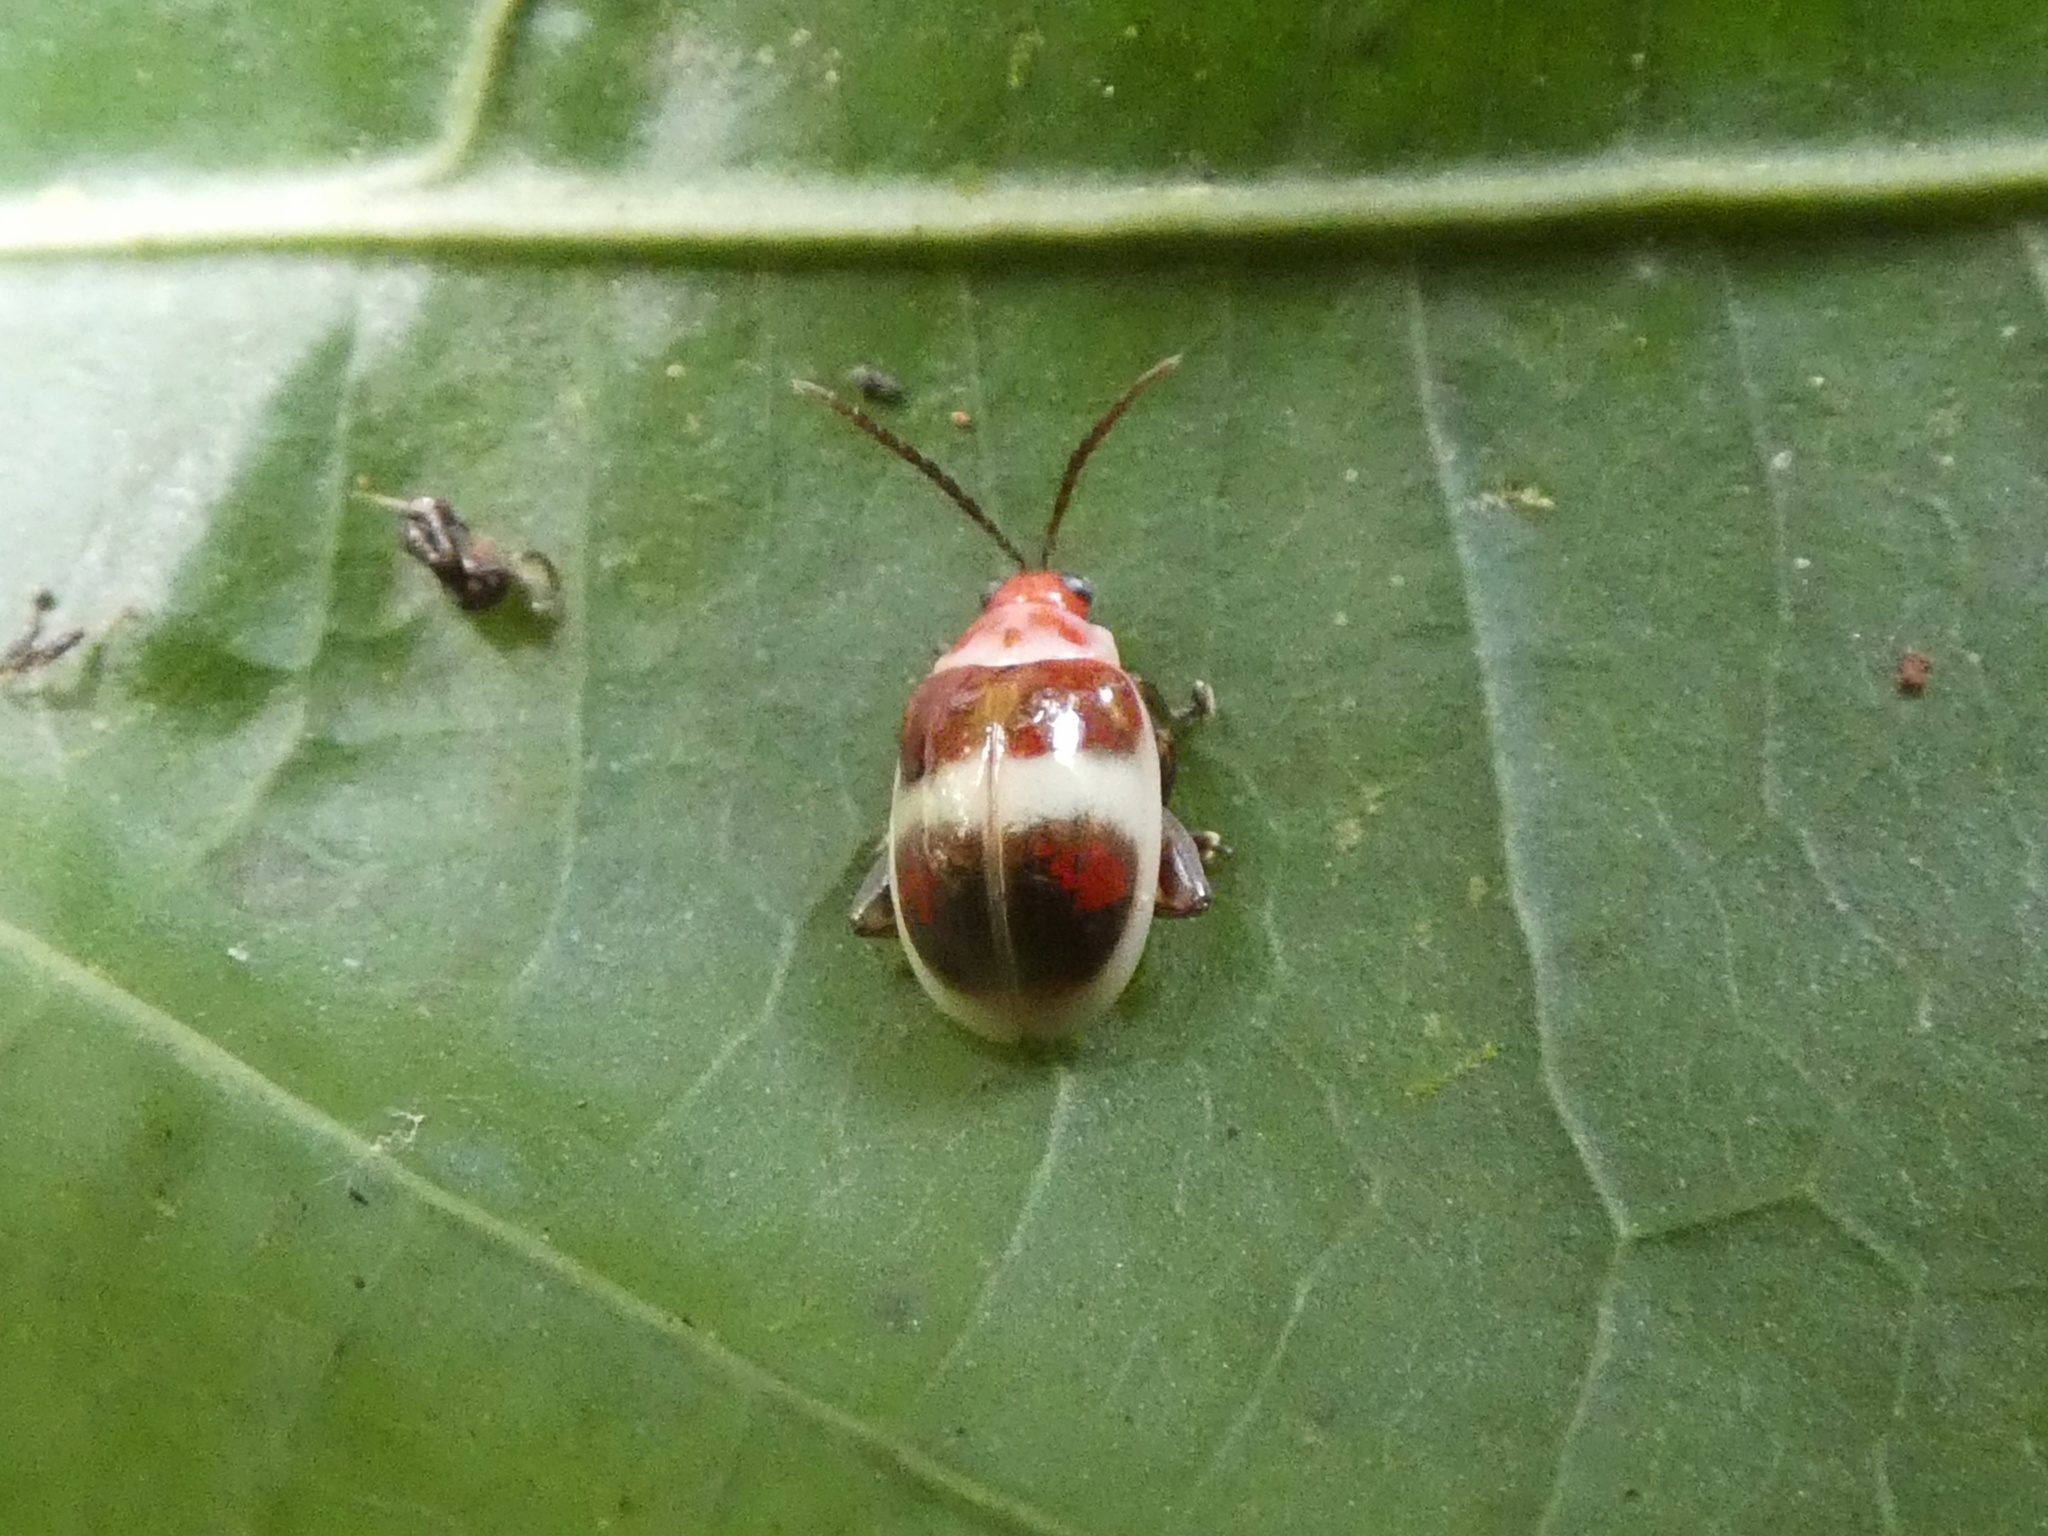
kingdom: Animalia
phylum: Arthropoda
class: Insecta
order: Coleoptera
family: Chrysomelidae
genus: Ptocadica
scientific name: Ptocadica
